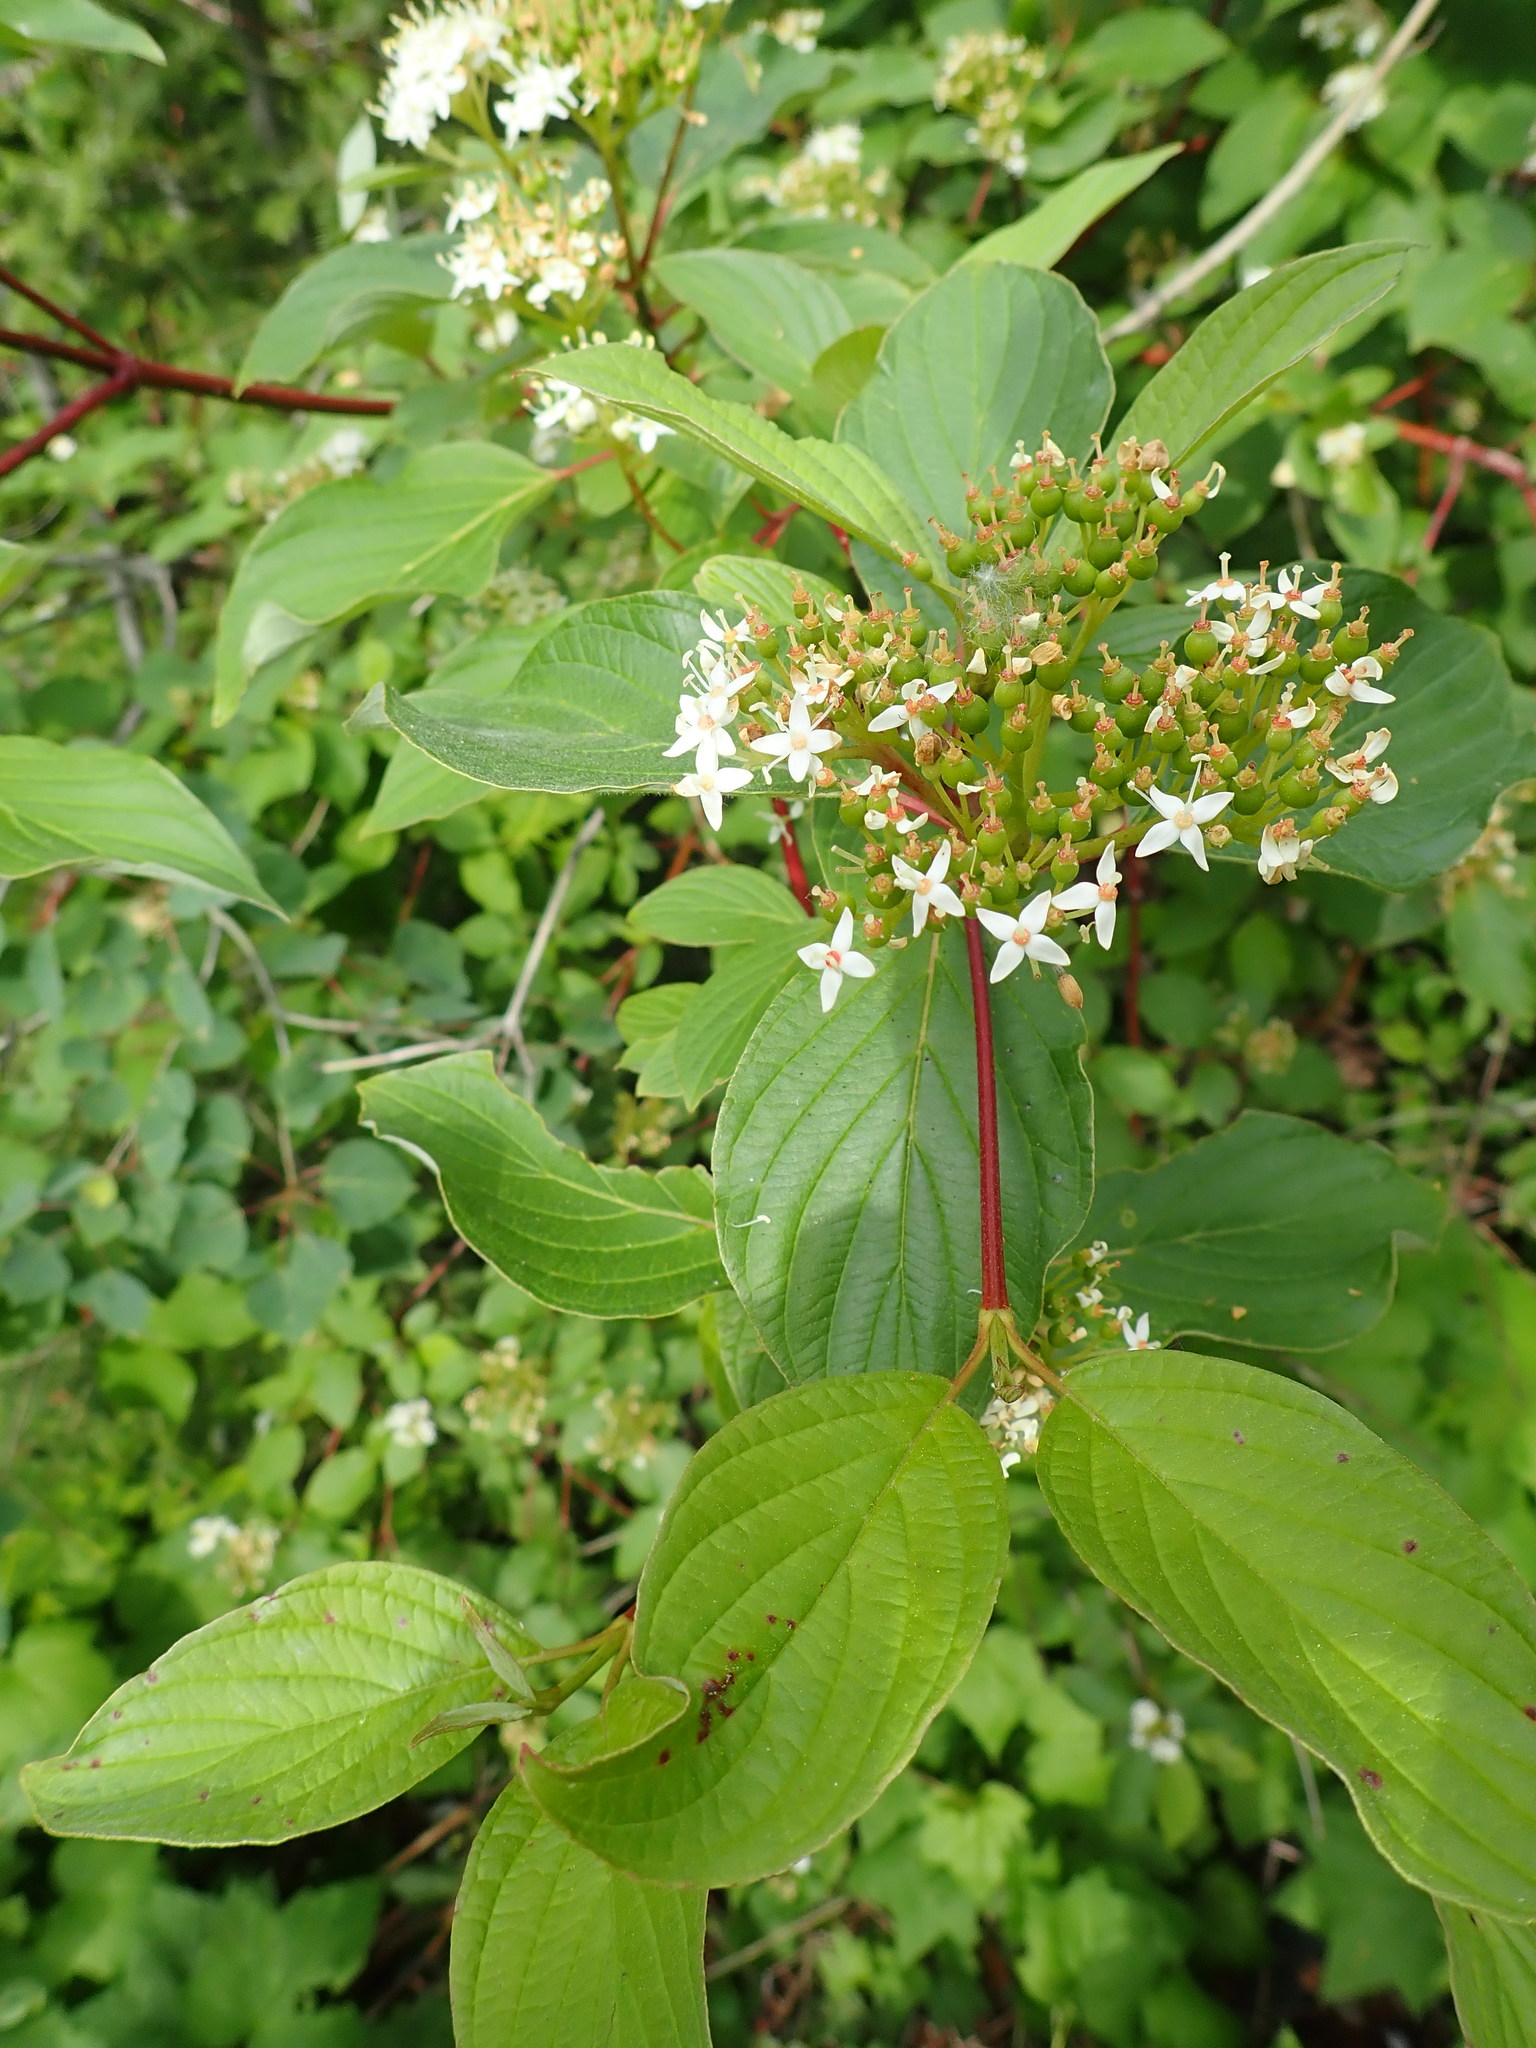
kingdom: Plantae
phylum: Tracheophyta
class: Magnoliopsida
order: Cornales
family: Cornaceae
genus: Cornus
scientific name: Cornus sericea
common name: Red-osier dogwood
